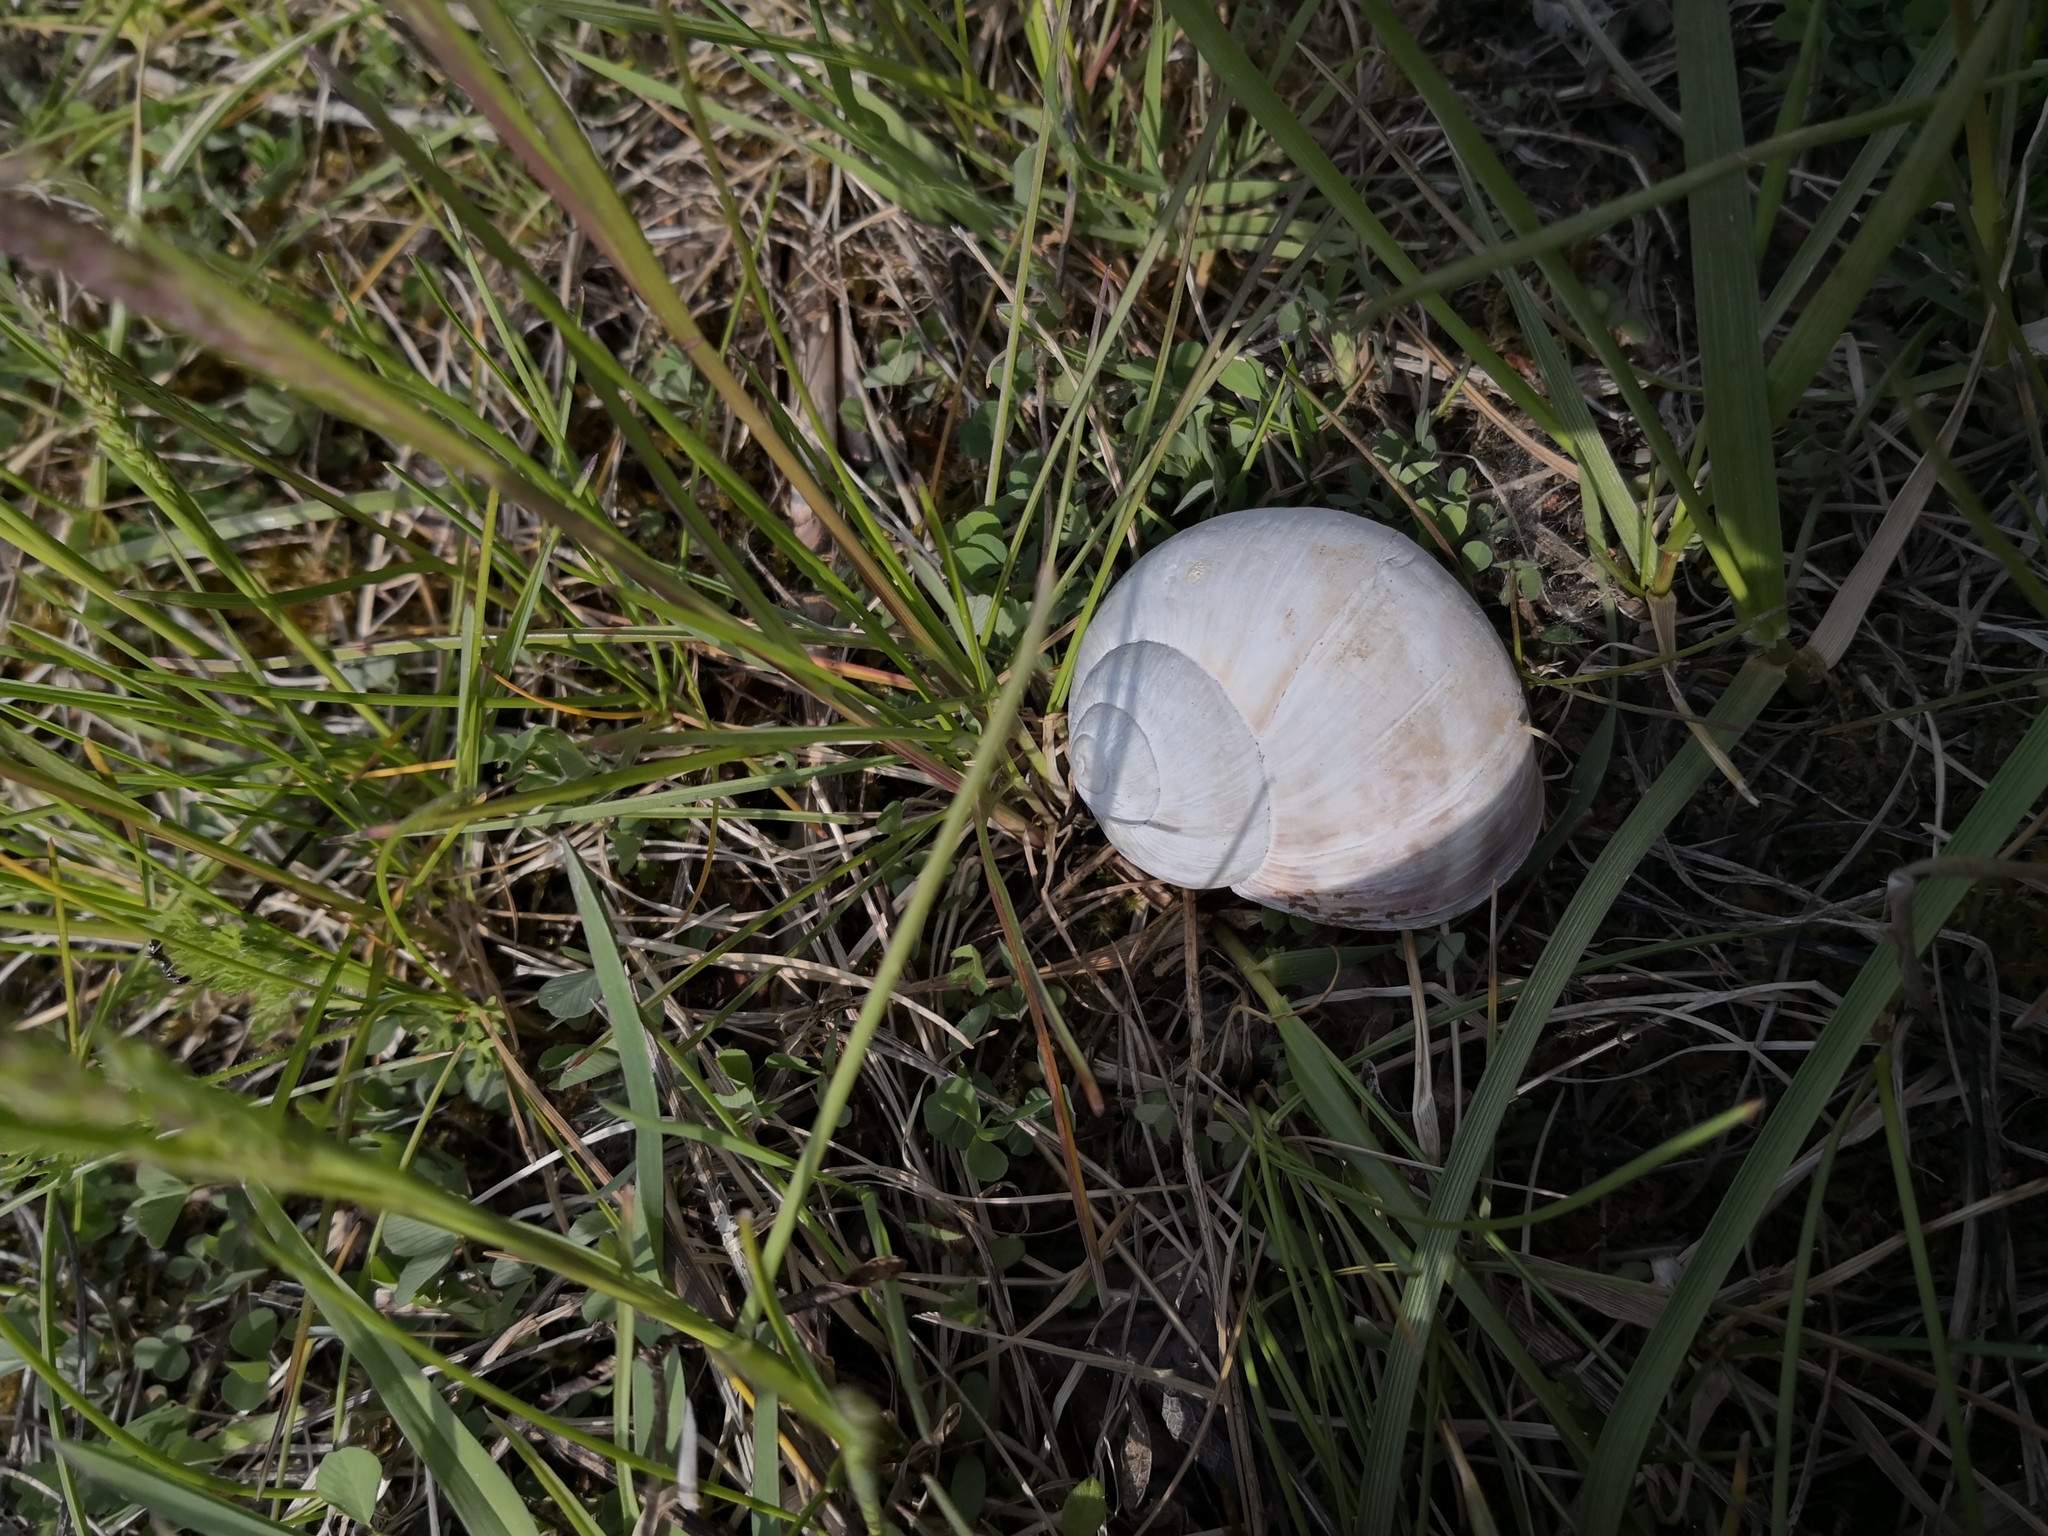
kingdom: Animalia
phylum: Mollusca
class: Gastropoda
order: Stylommatophora
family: Helicidae
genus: Helix
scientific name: Helix pomatia
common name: Roman snail
